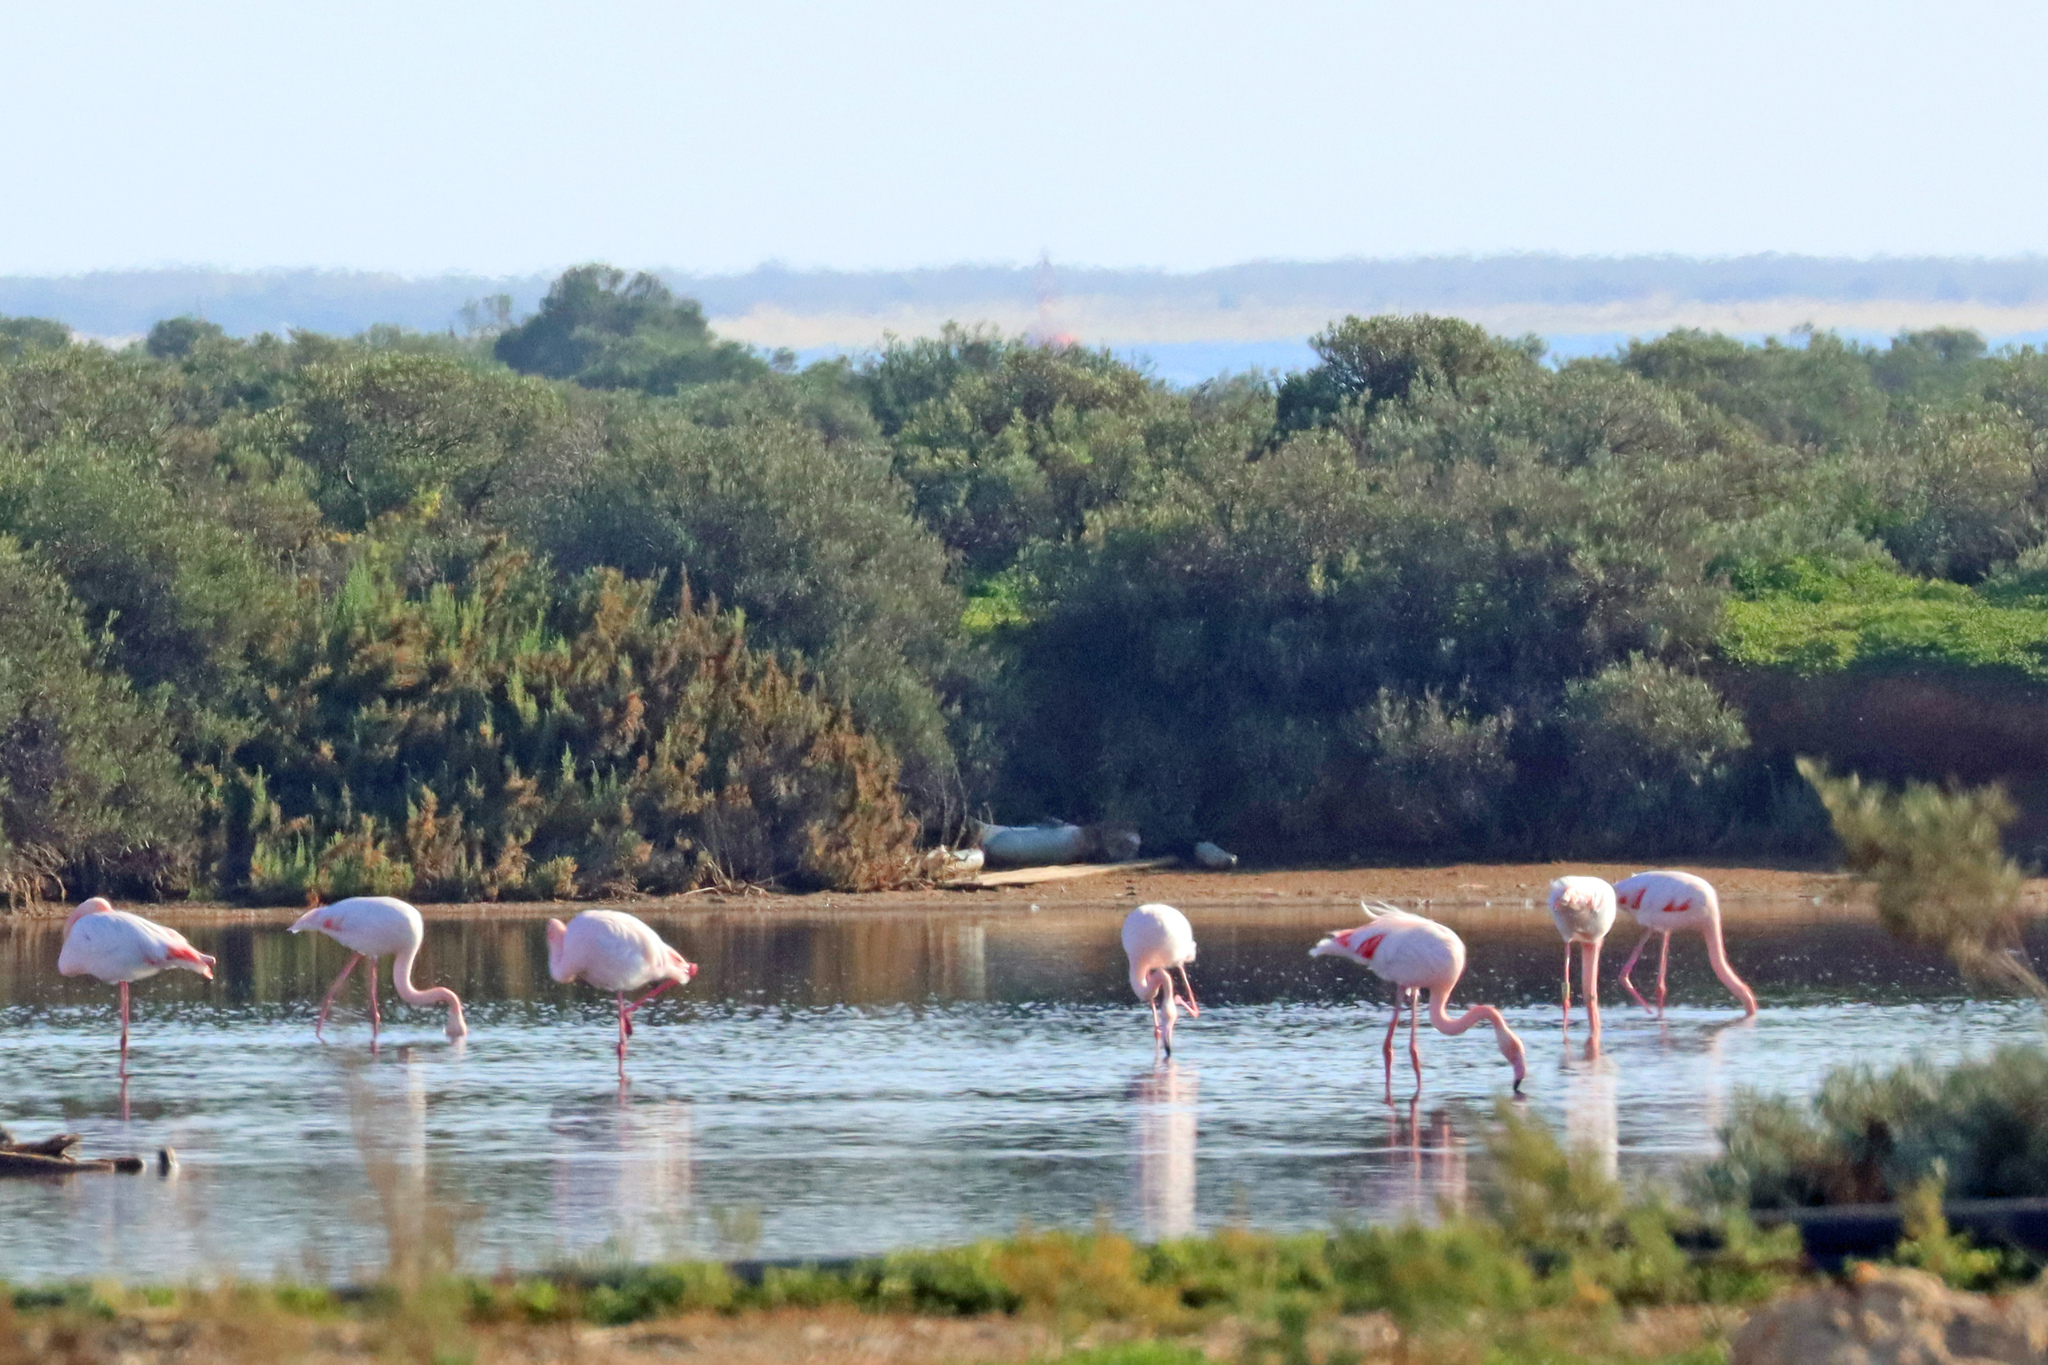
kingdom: Animalia
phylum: Chordata
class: Aves
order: Phoenicopteriformes
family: Phoenicopteridae
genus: Phoenicopterus
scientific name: Phoenicopterus roseus
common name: Greater flamingo
